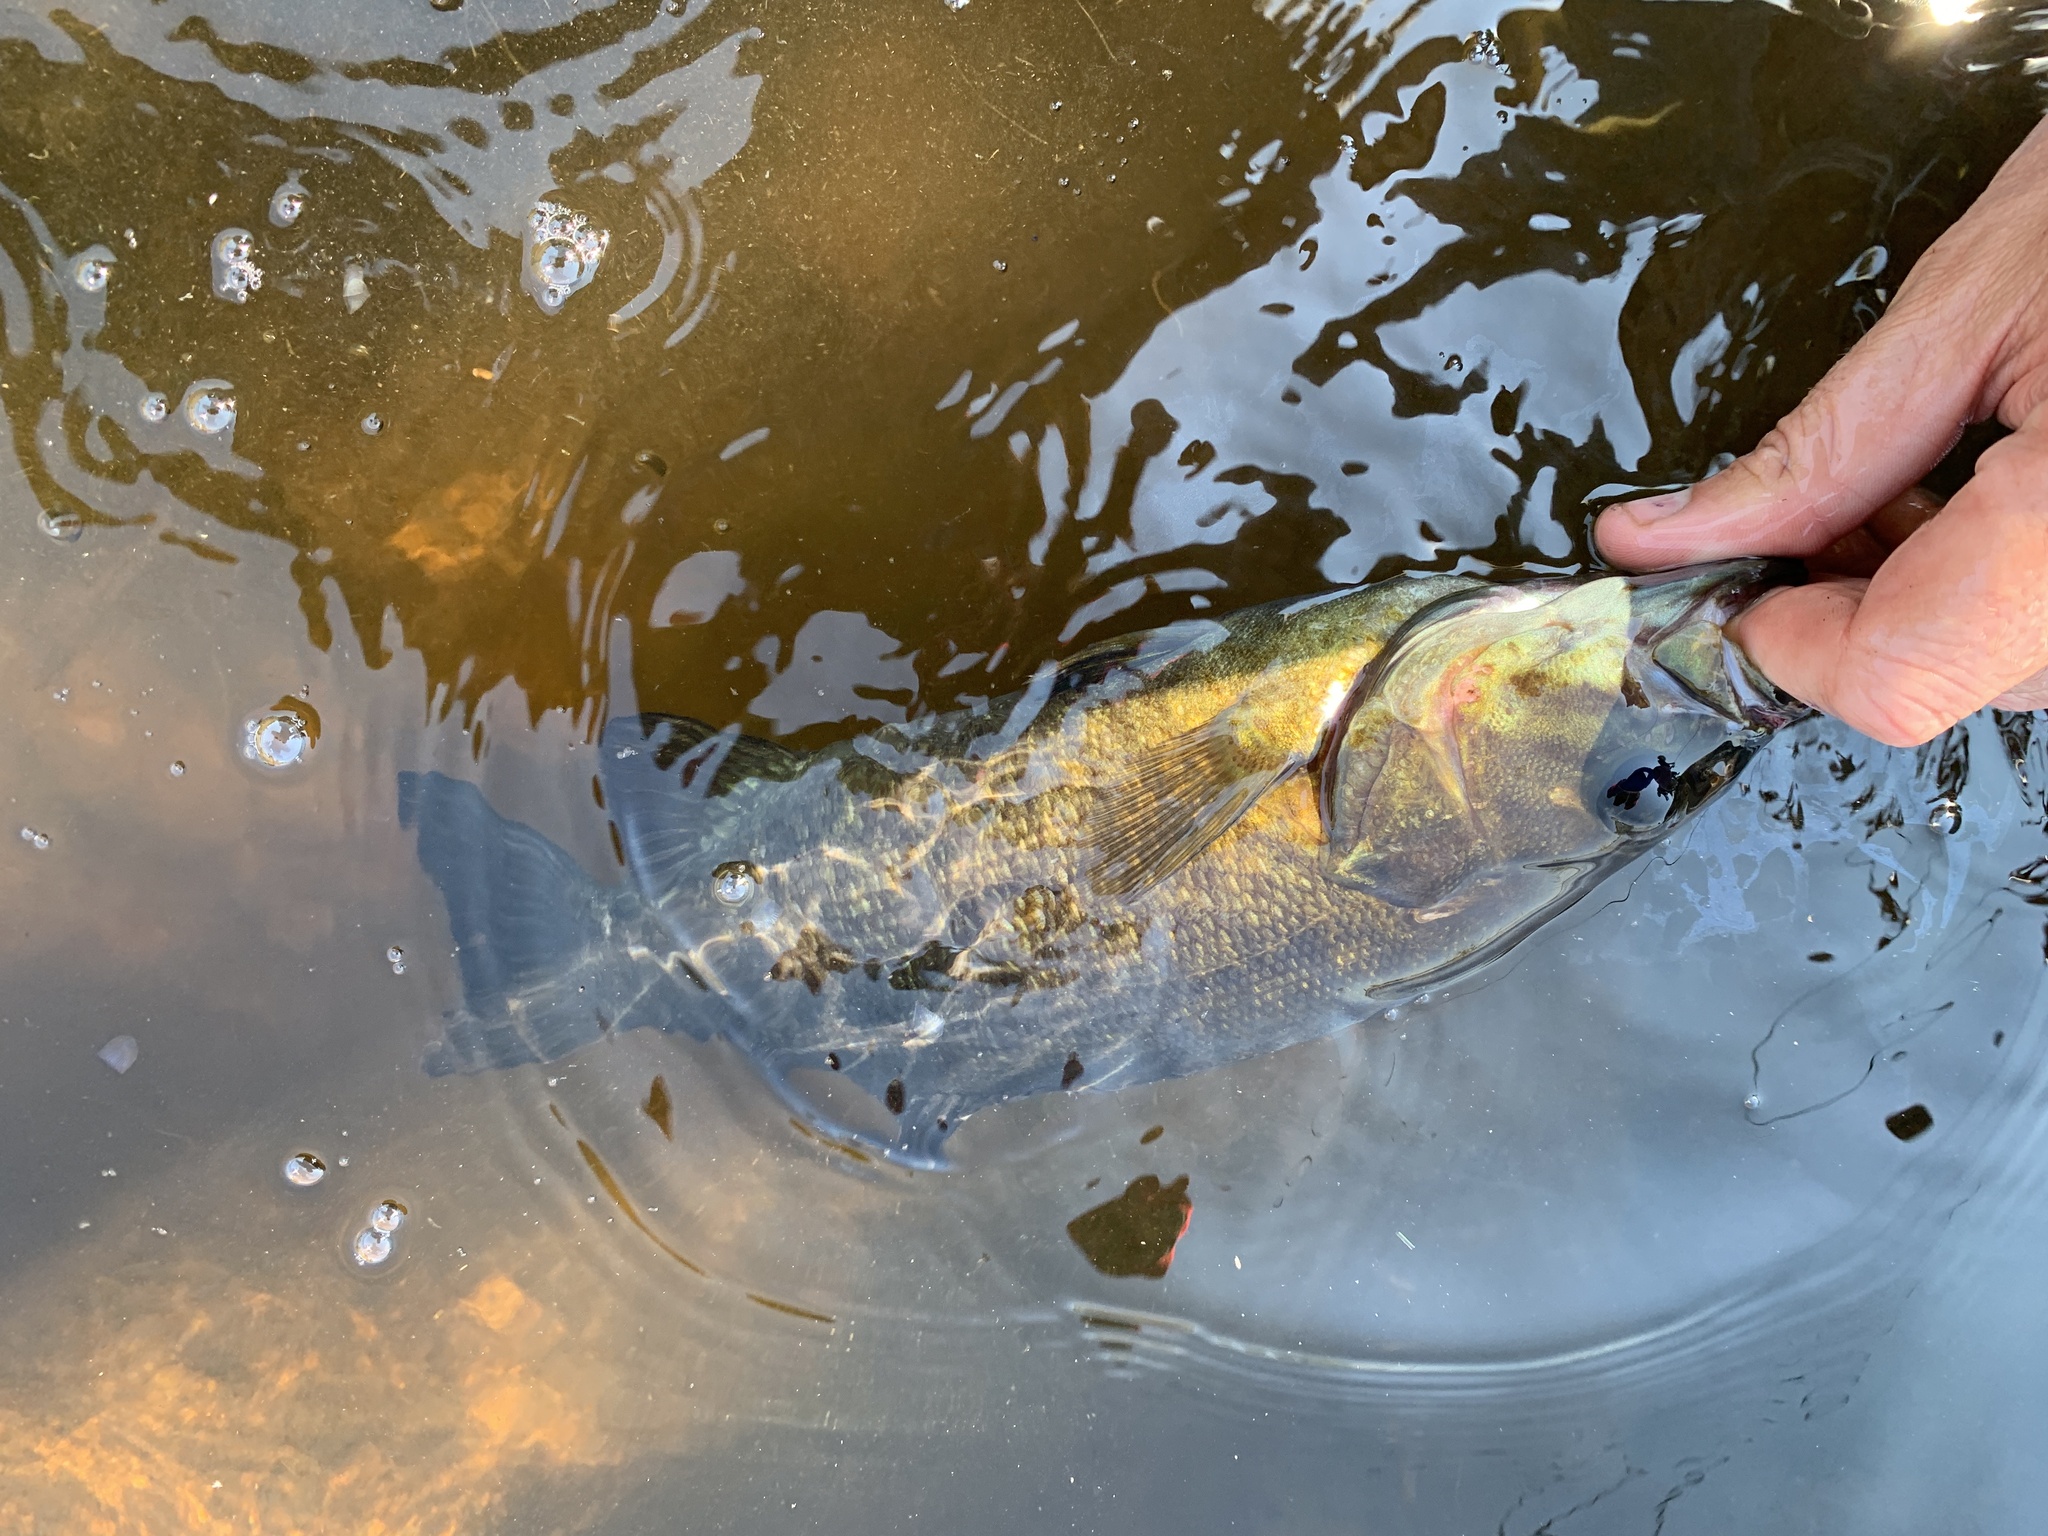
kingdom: Animalia
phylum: Chordata
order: Perciformes
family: Centrarchidae
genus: Micropterus
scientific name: Micropterus dolomieu
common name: Smallmouth bass
